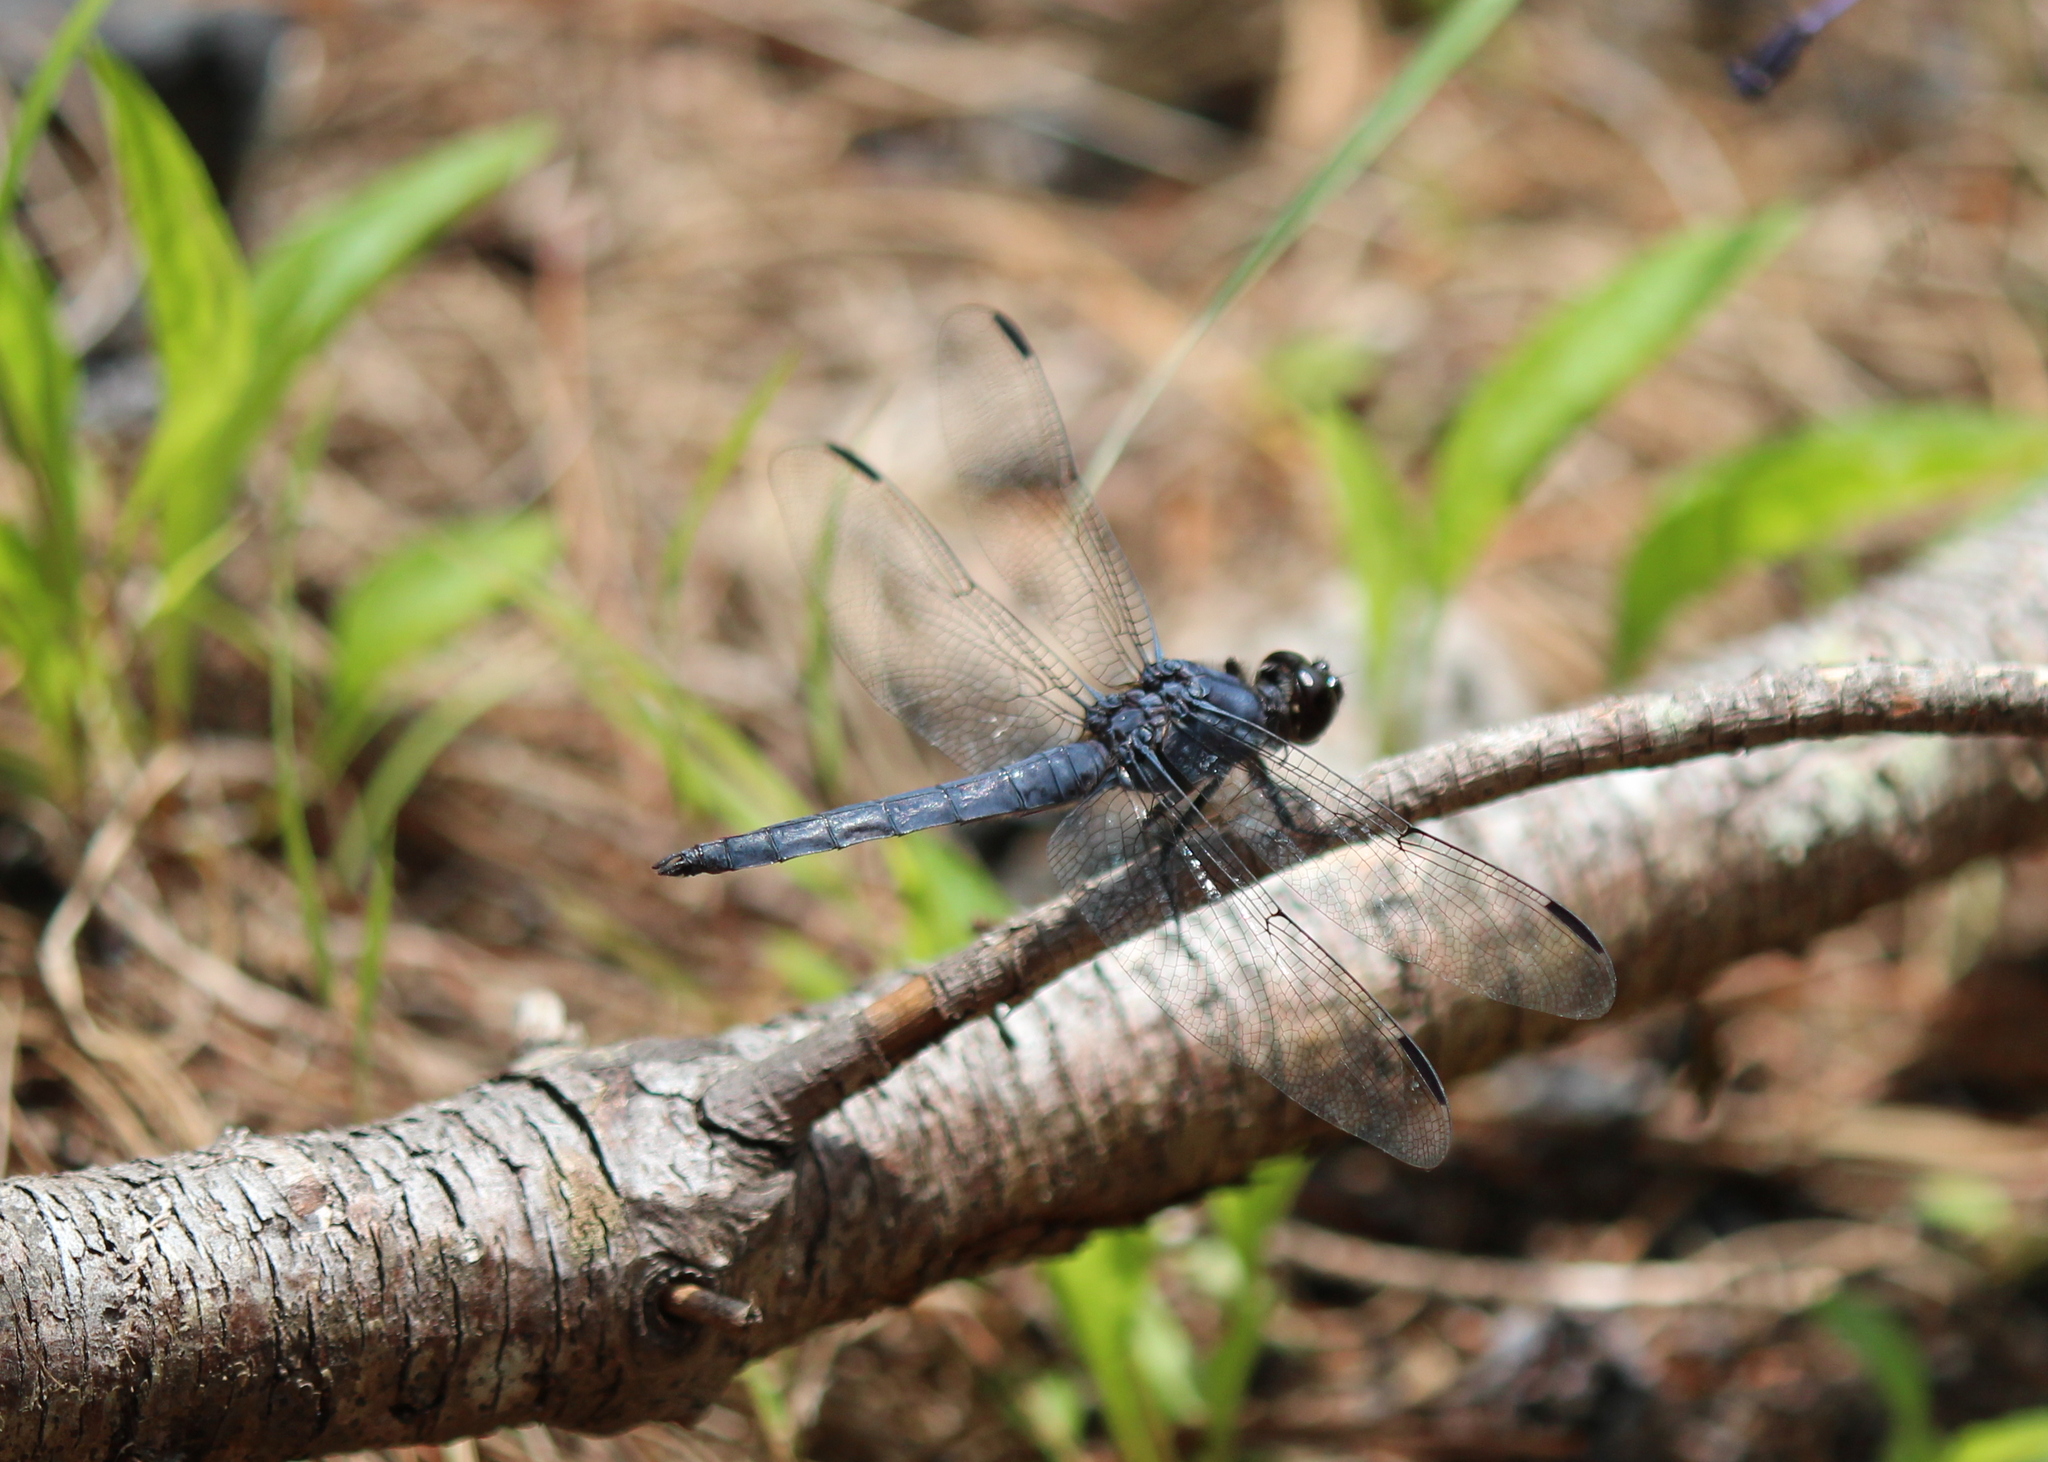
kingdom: Animalia
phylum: Arthropoda
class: Insecta
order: Odonata
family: Libellulidae
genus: Libellula
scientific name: Libellula incesta
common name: Slaty skimmer
